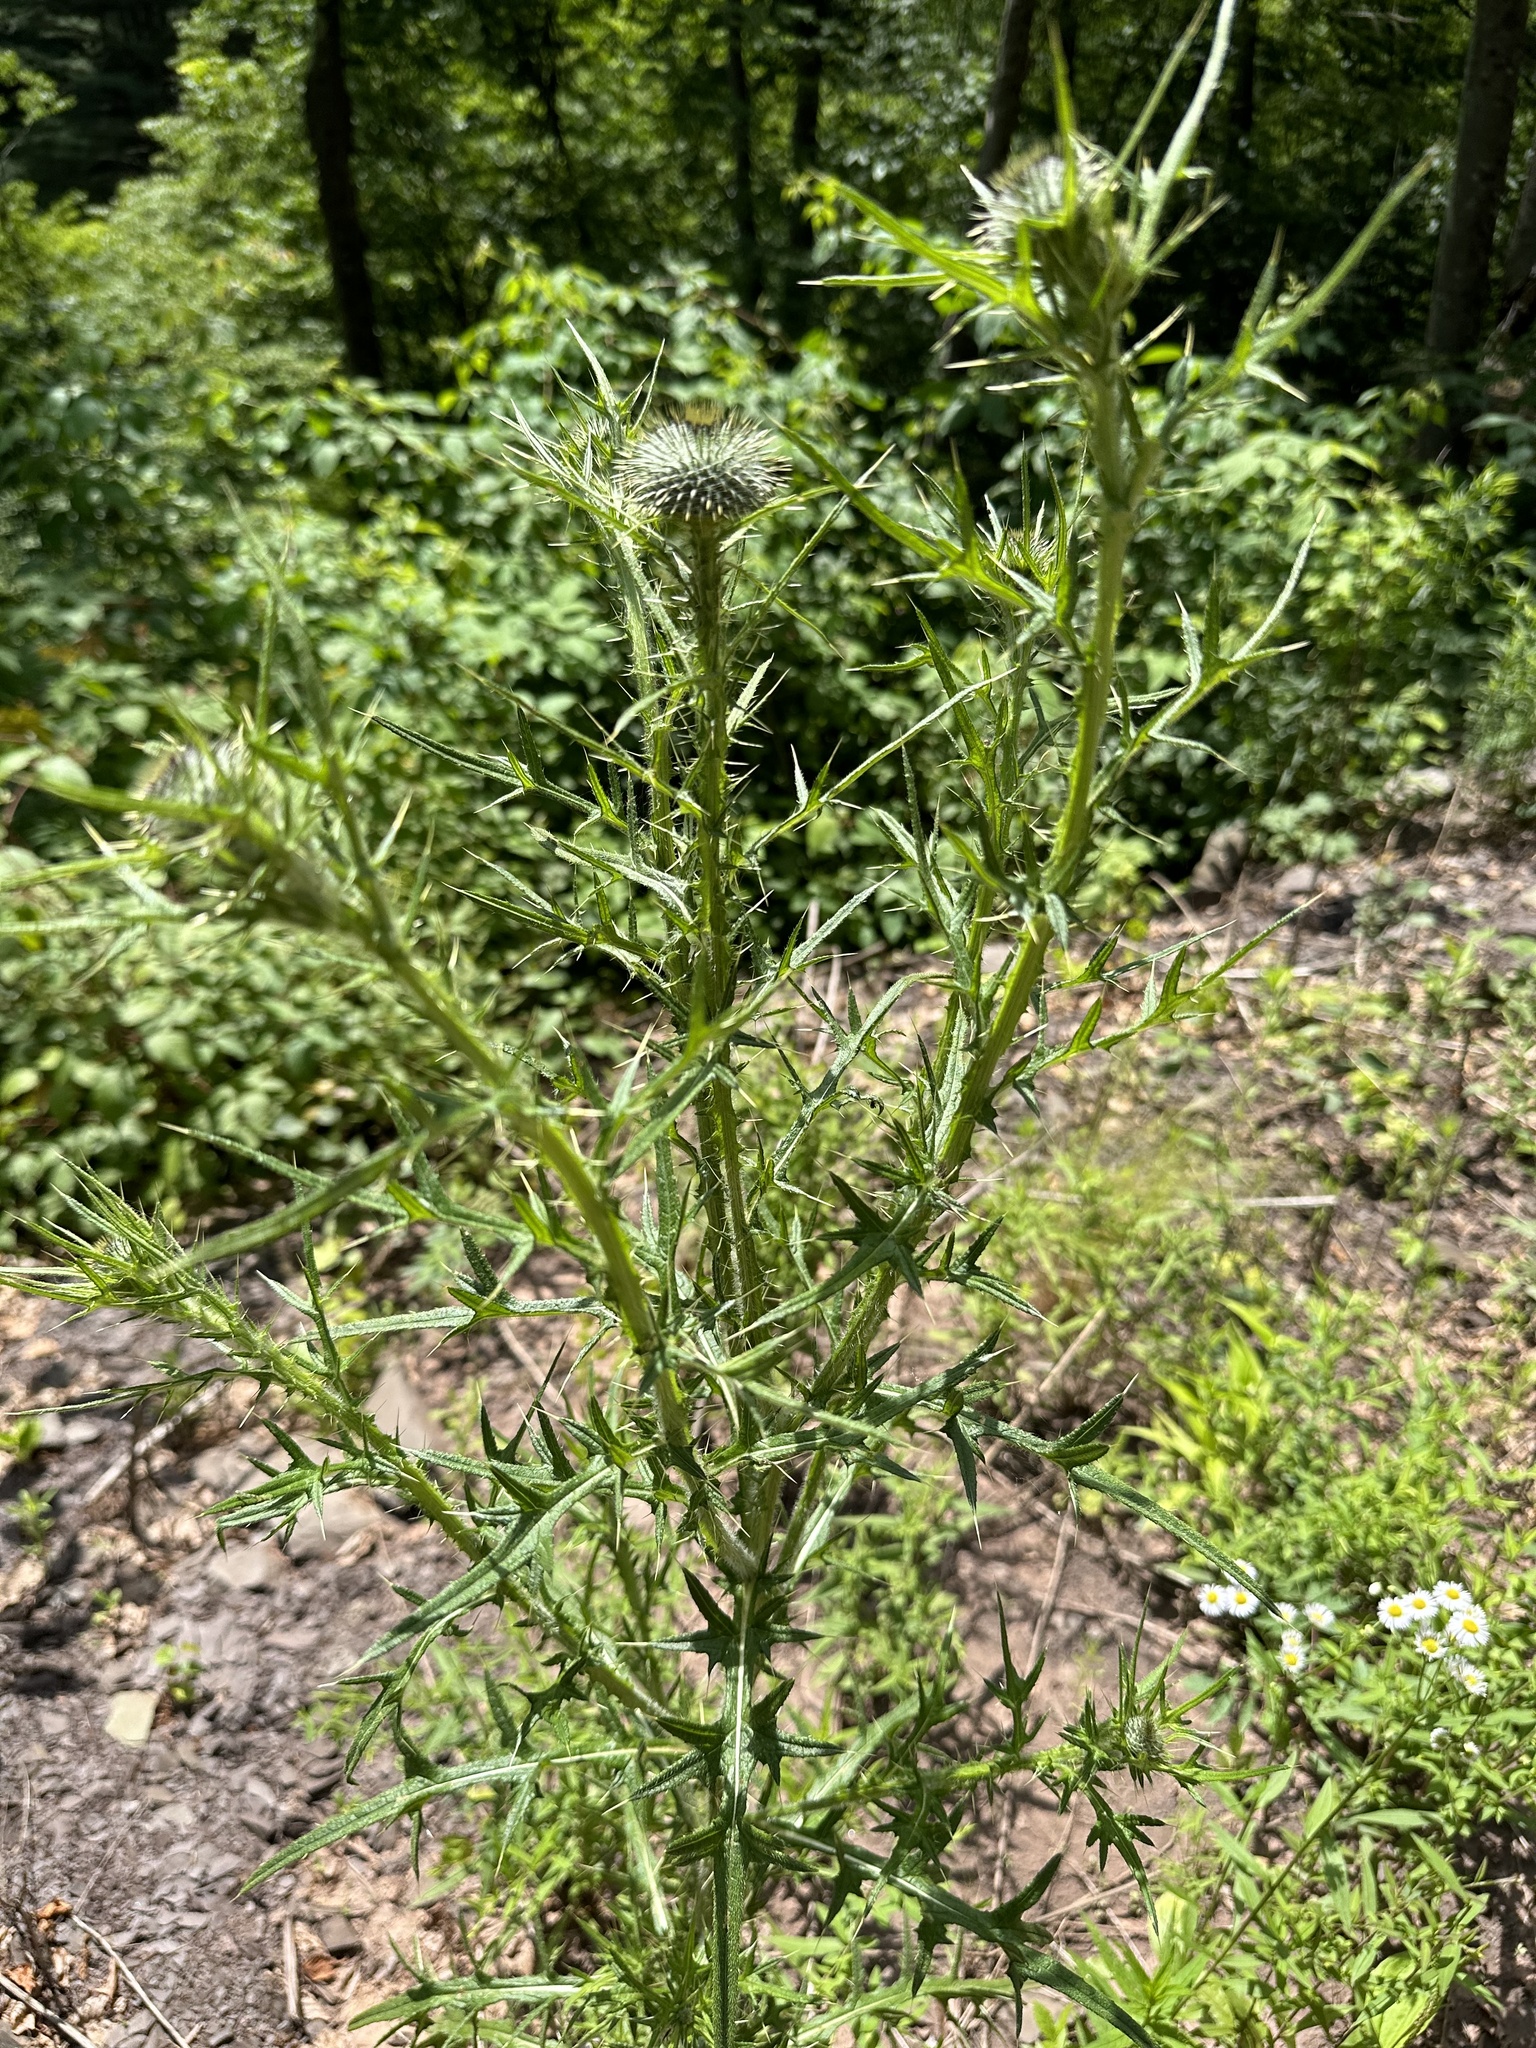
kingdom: Plantae
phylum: Tracheophyta
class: Magnoliopsida
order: Asterales
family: Asteraceae
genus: Cirsium
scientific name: Cirsium vulgare
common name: Bull thistle
